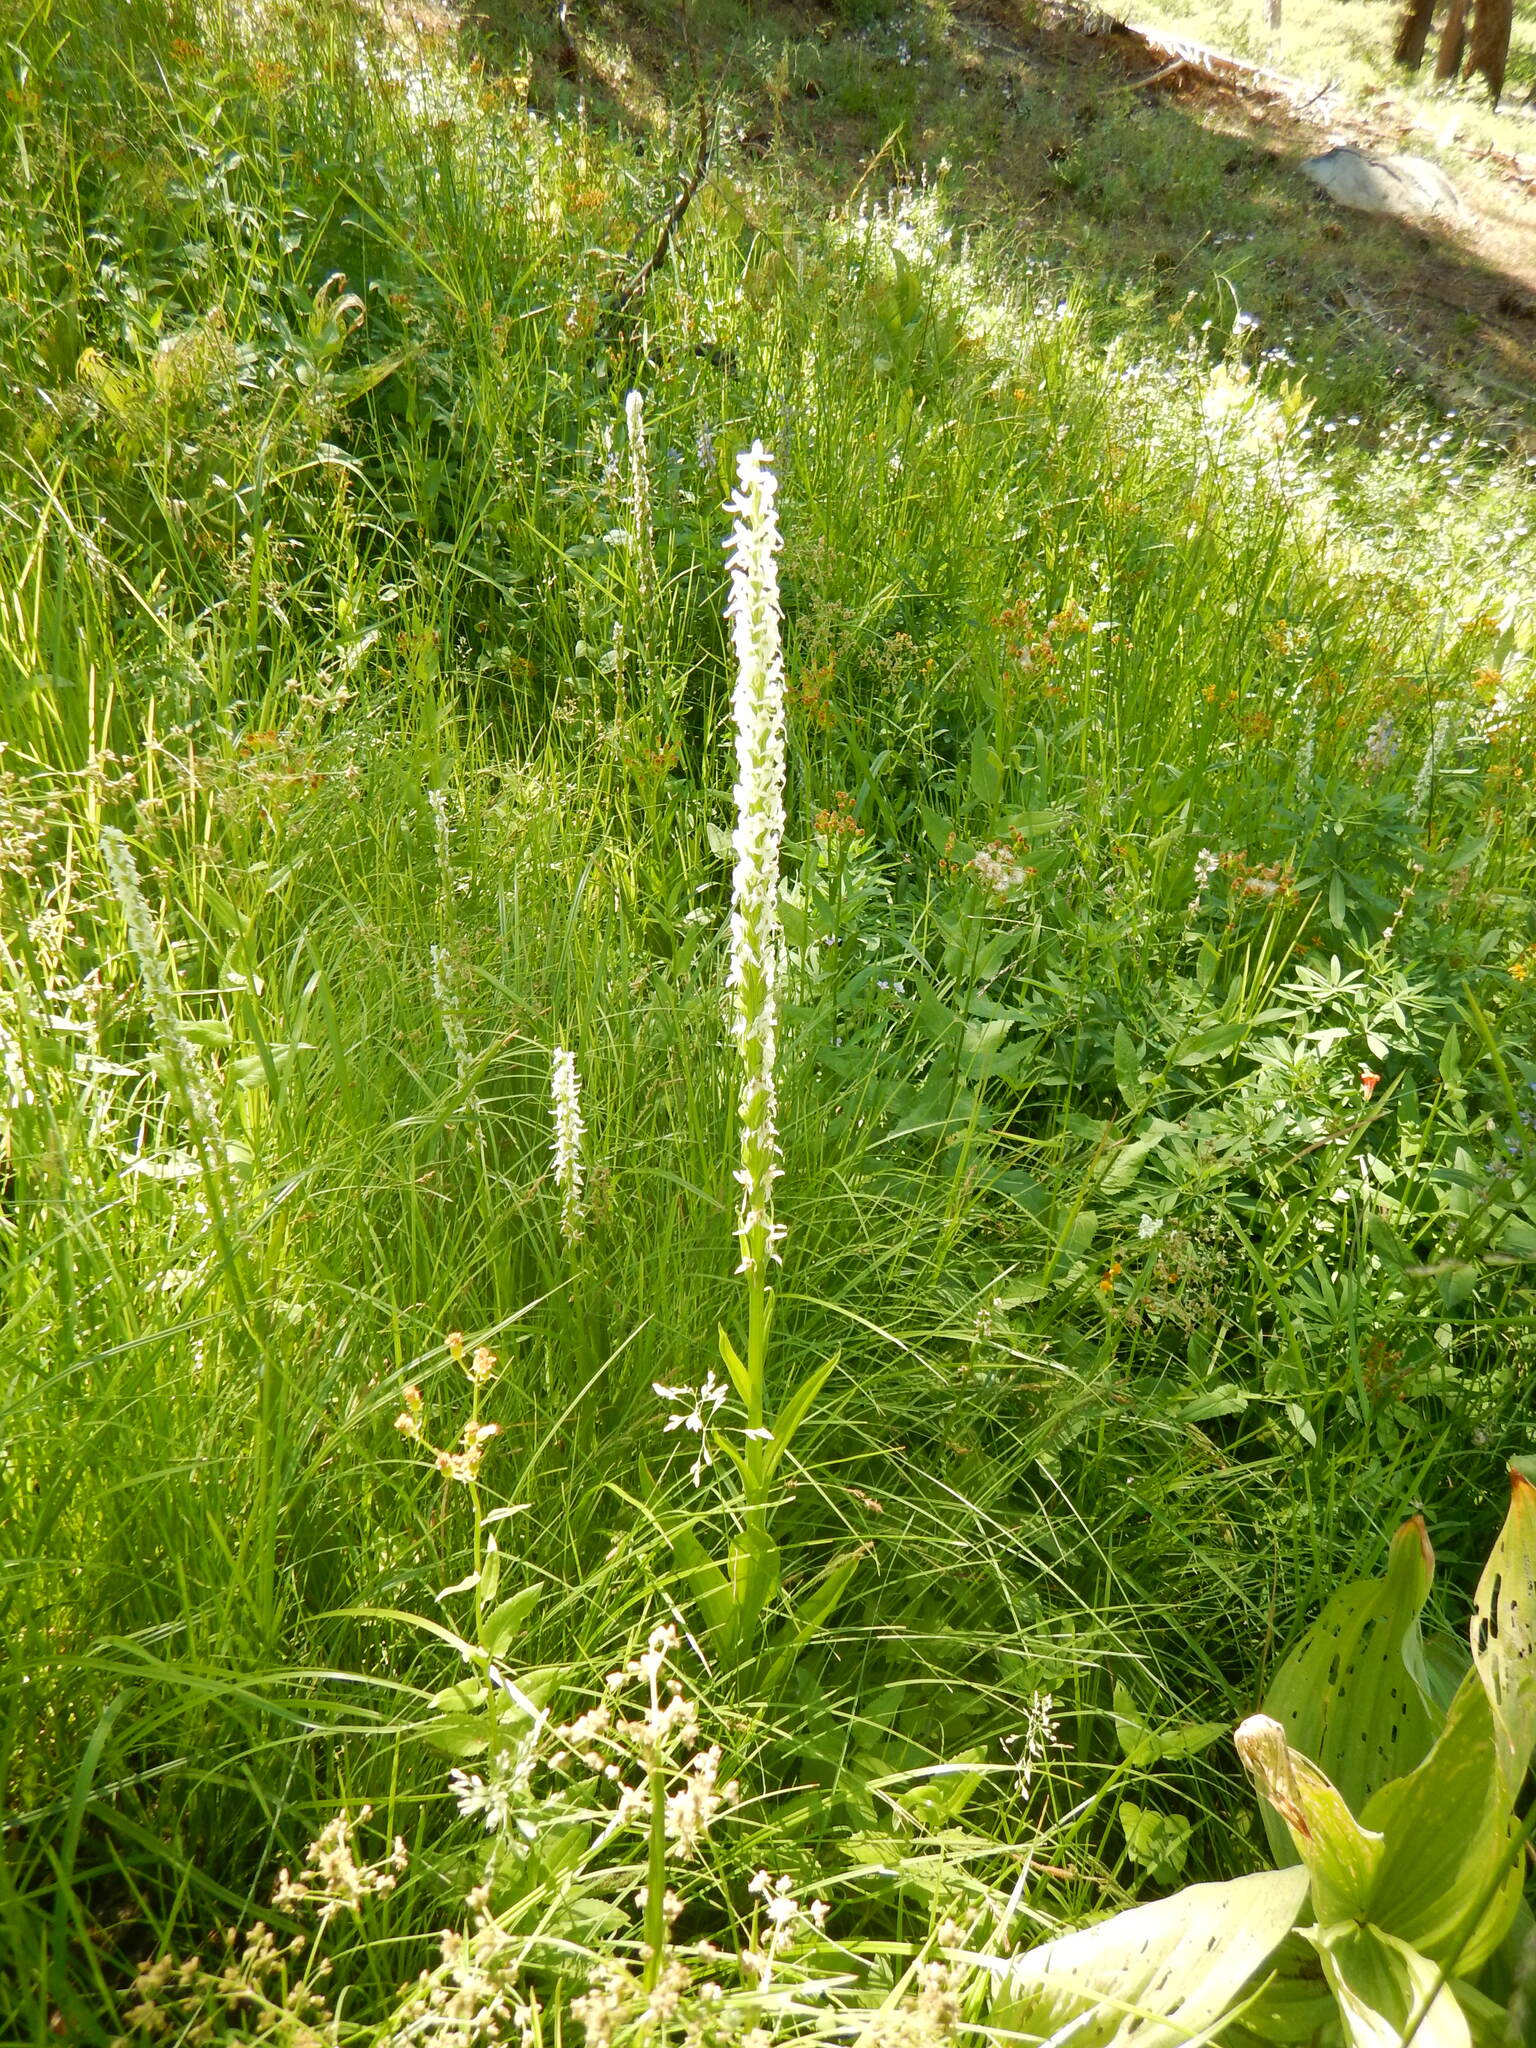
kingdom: Plantae
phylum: Tracheophyta
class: Liliopsida
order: Asparagales
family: Orchidaceae
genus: Platanthera
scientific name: Platanthera dilatata
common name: Bog candles
